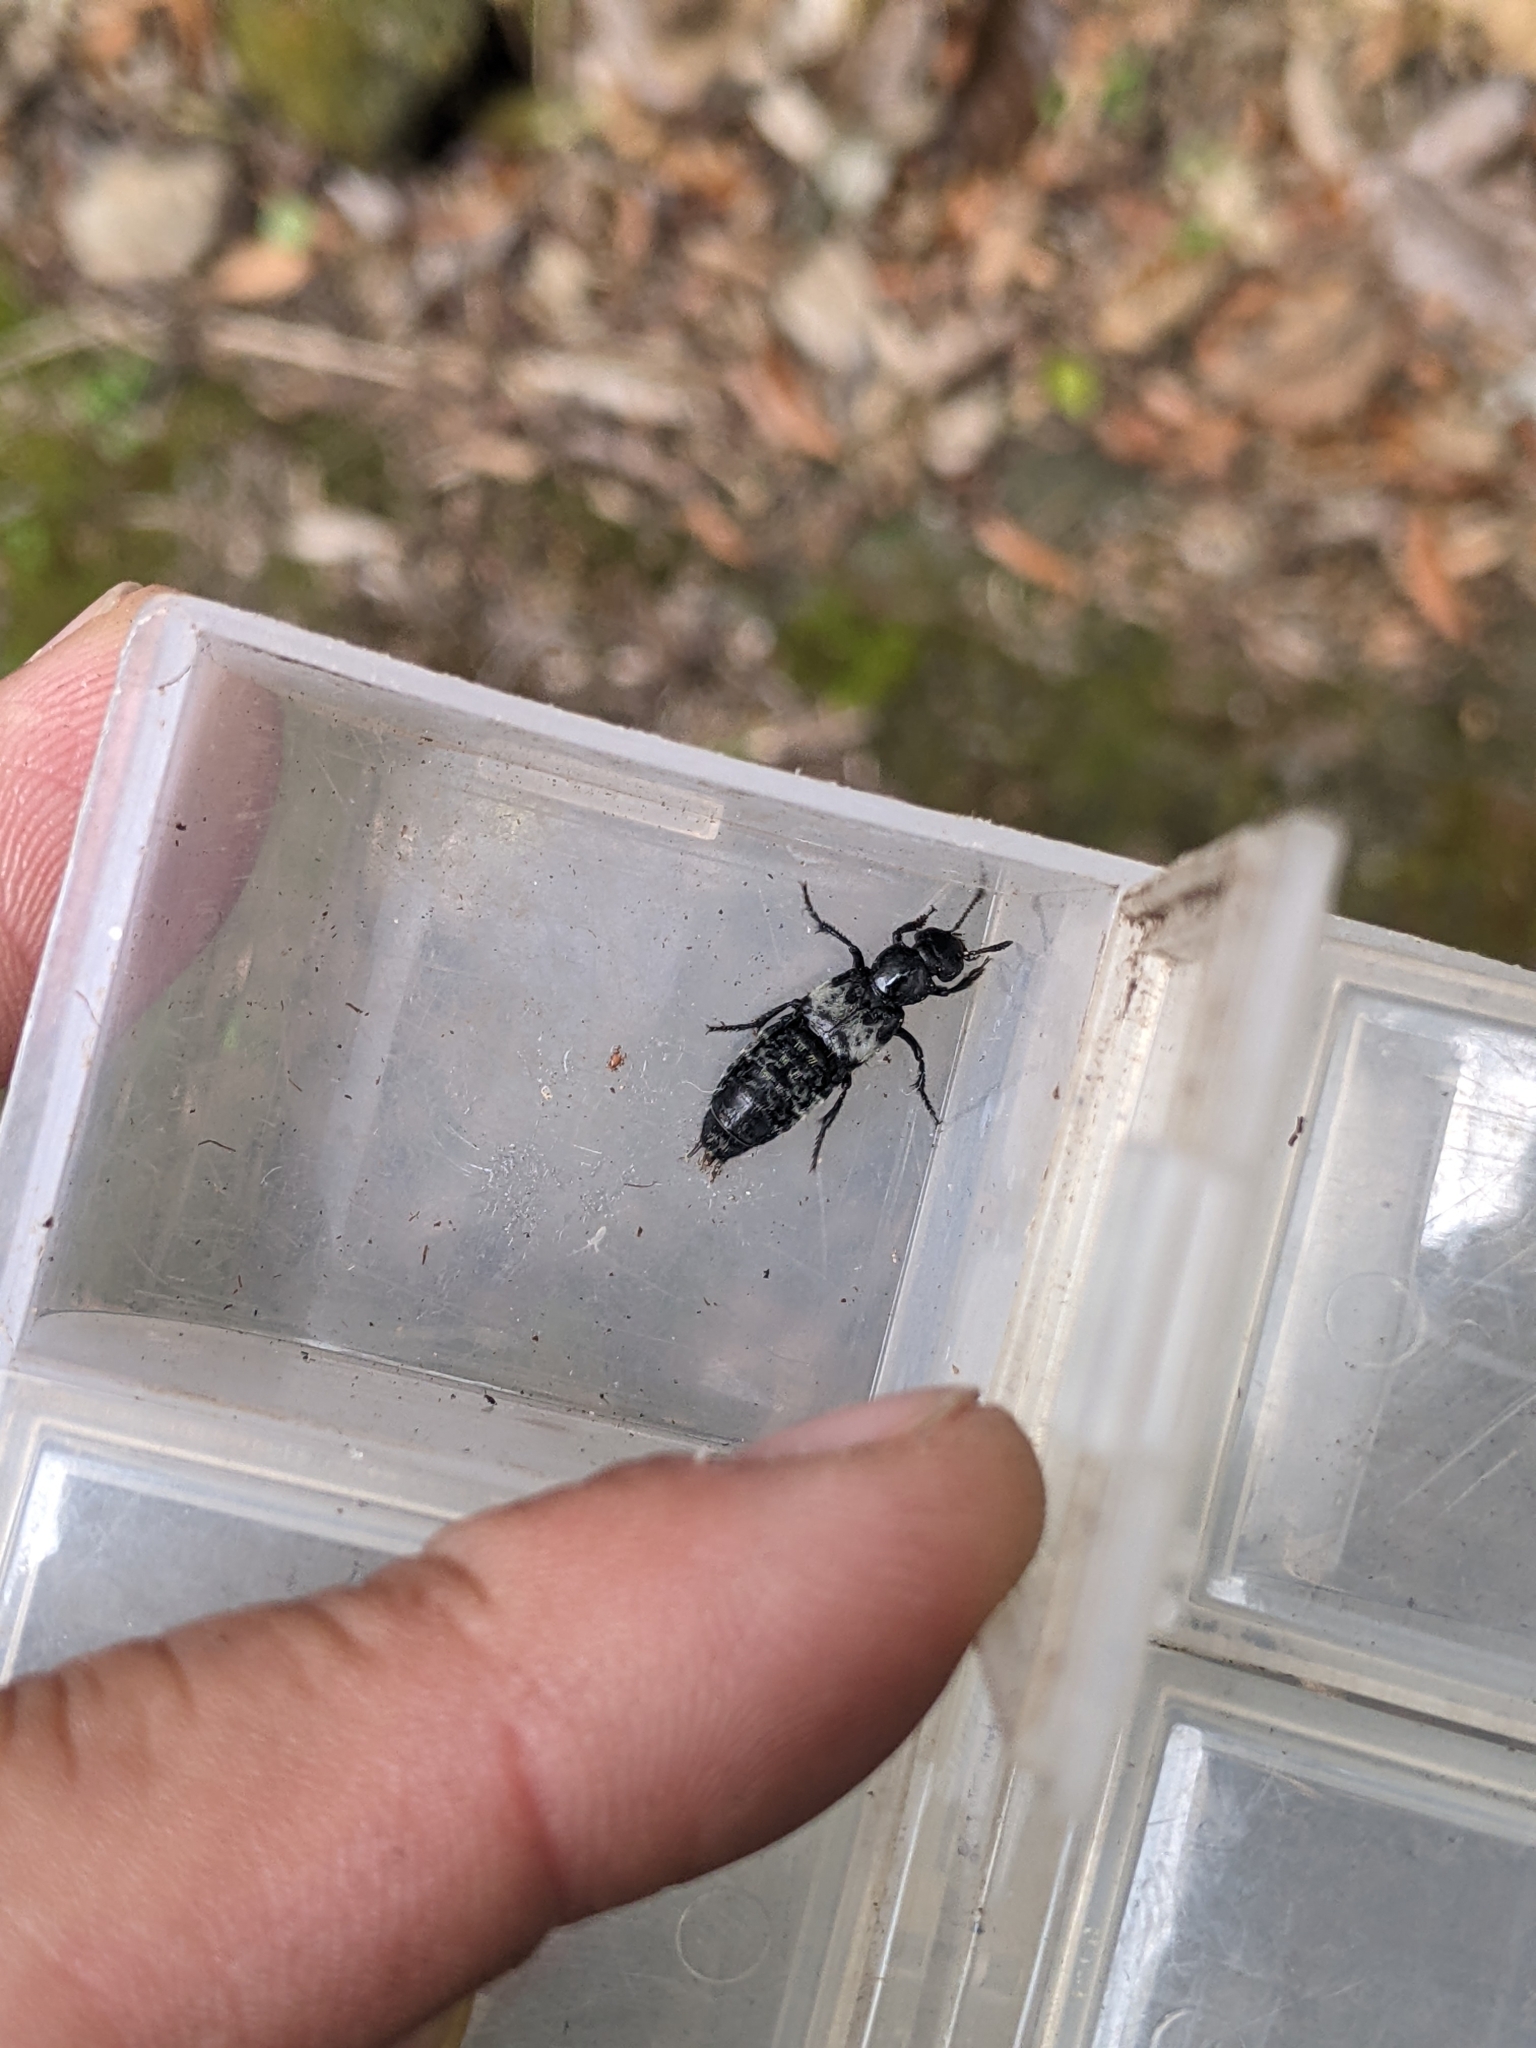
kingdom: Animalia
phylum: Arthropoda
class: Insecta
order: Coleoptera
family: Staphylinidae
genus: Creophilus
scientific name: Creophilus maxillosus
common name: Hairy rove beetle
